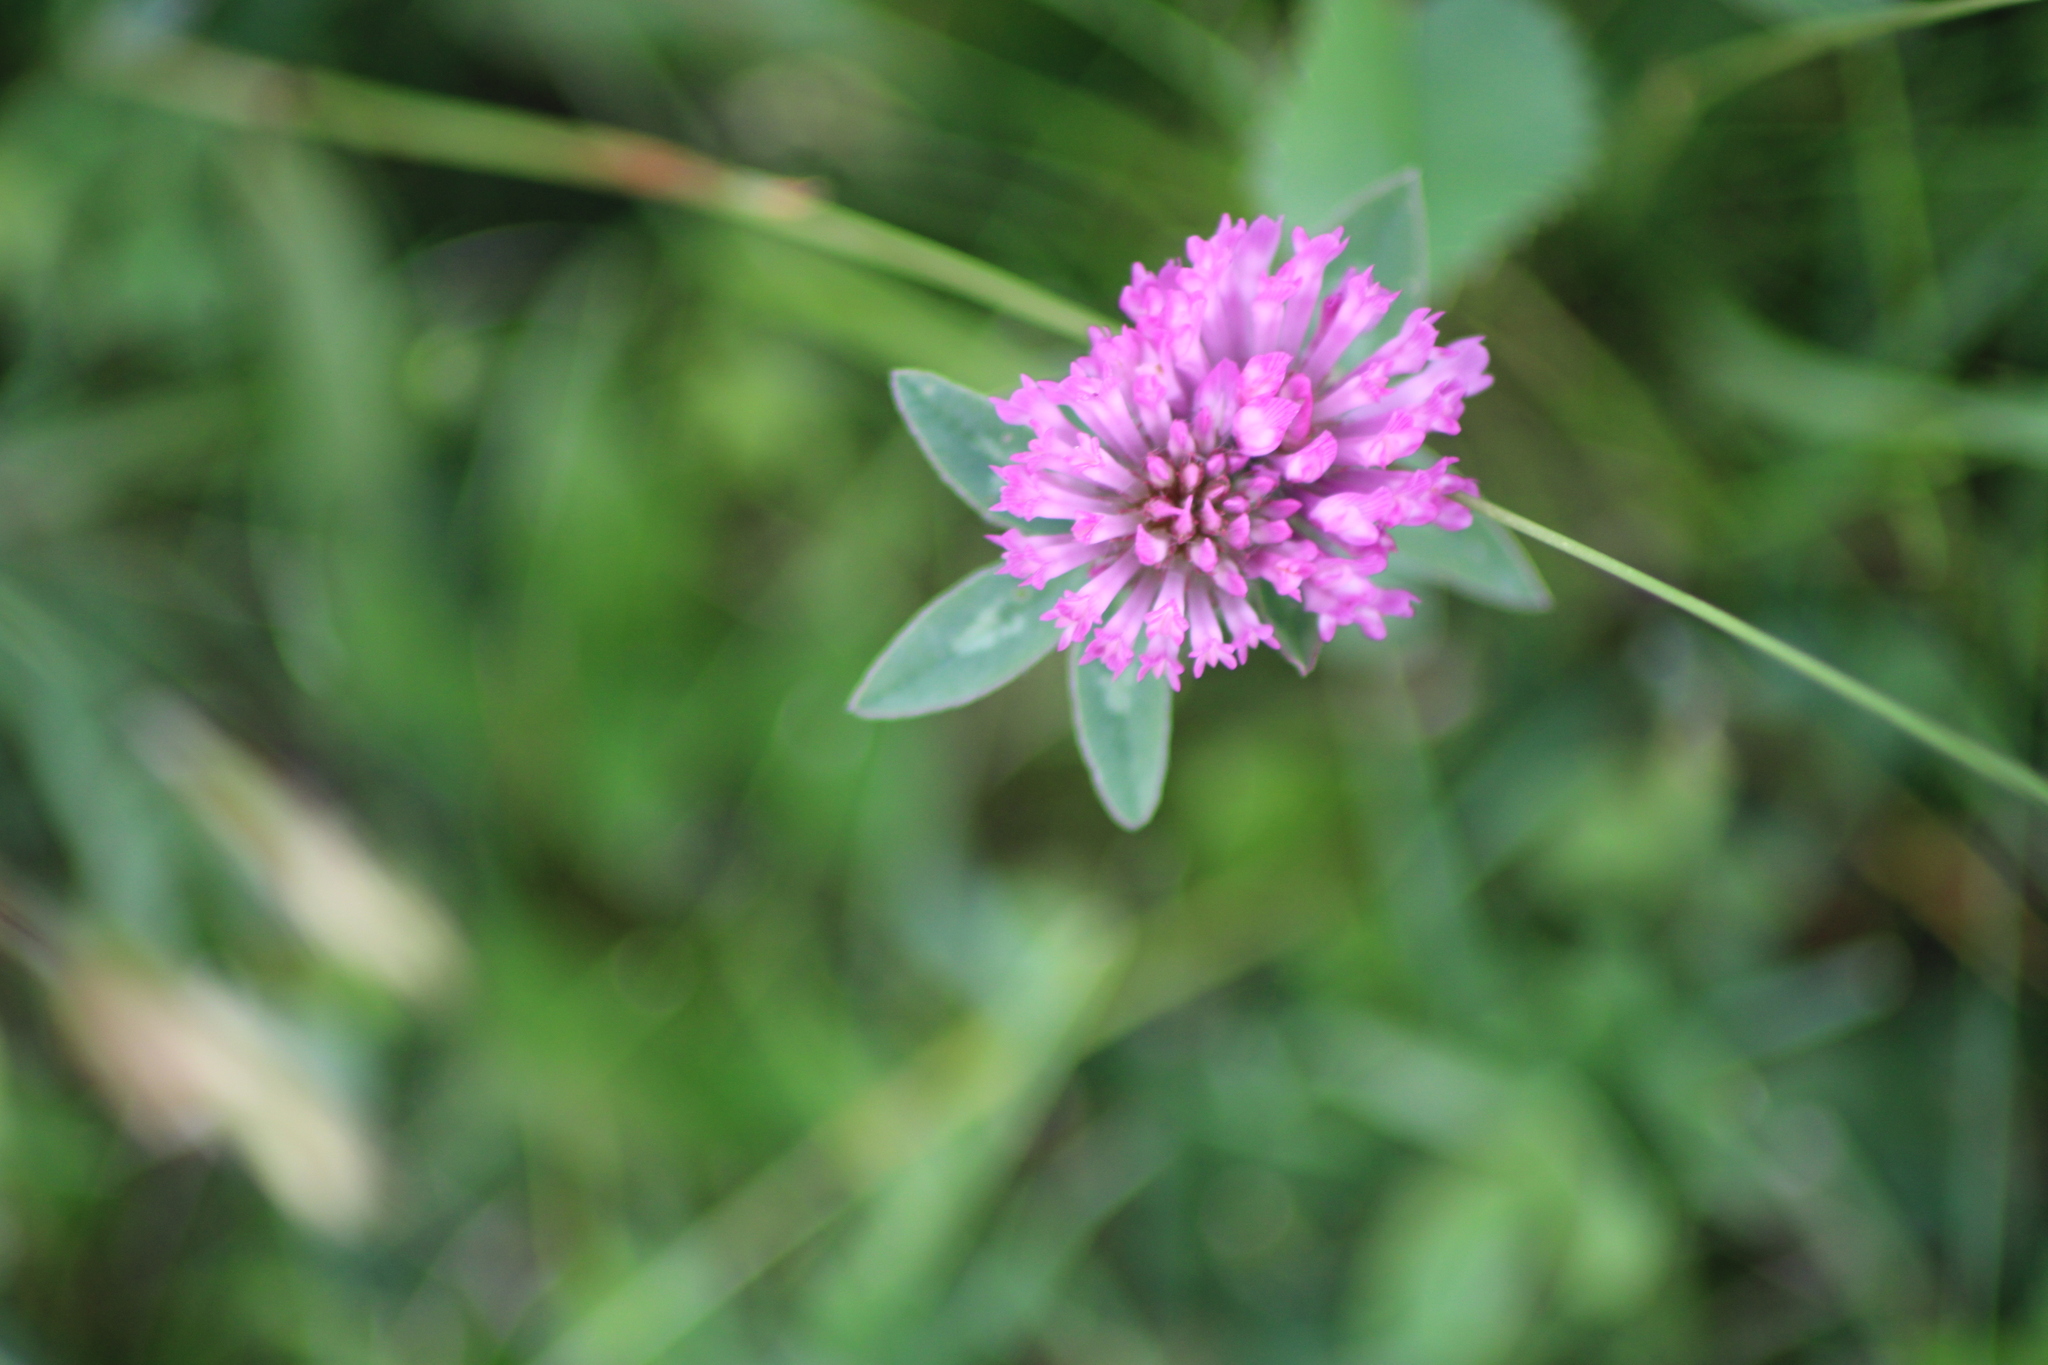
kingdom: Plantae
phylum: Tracheophyta
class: Magnoliopsida
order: Fabales
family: Fabaceae
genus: Trifolium
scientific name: Trifolium pratense
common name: Red clover
